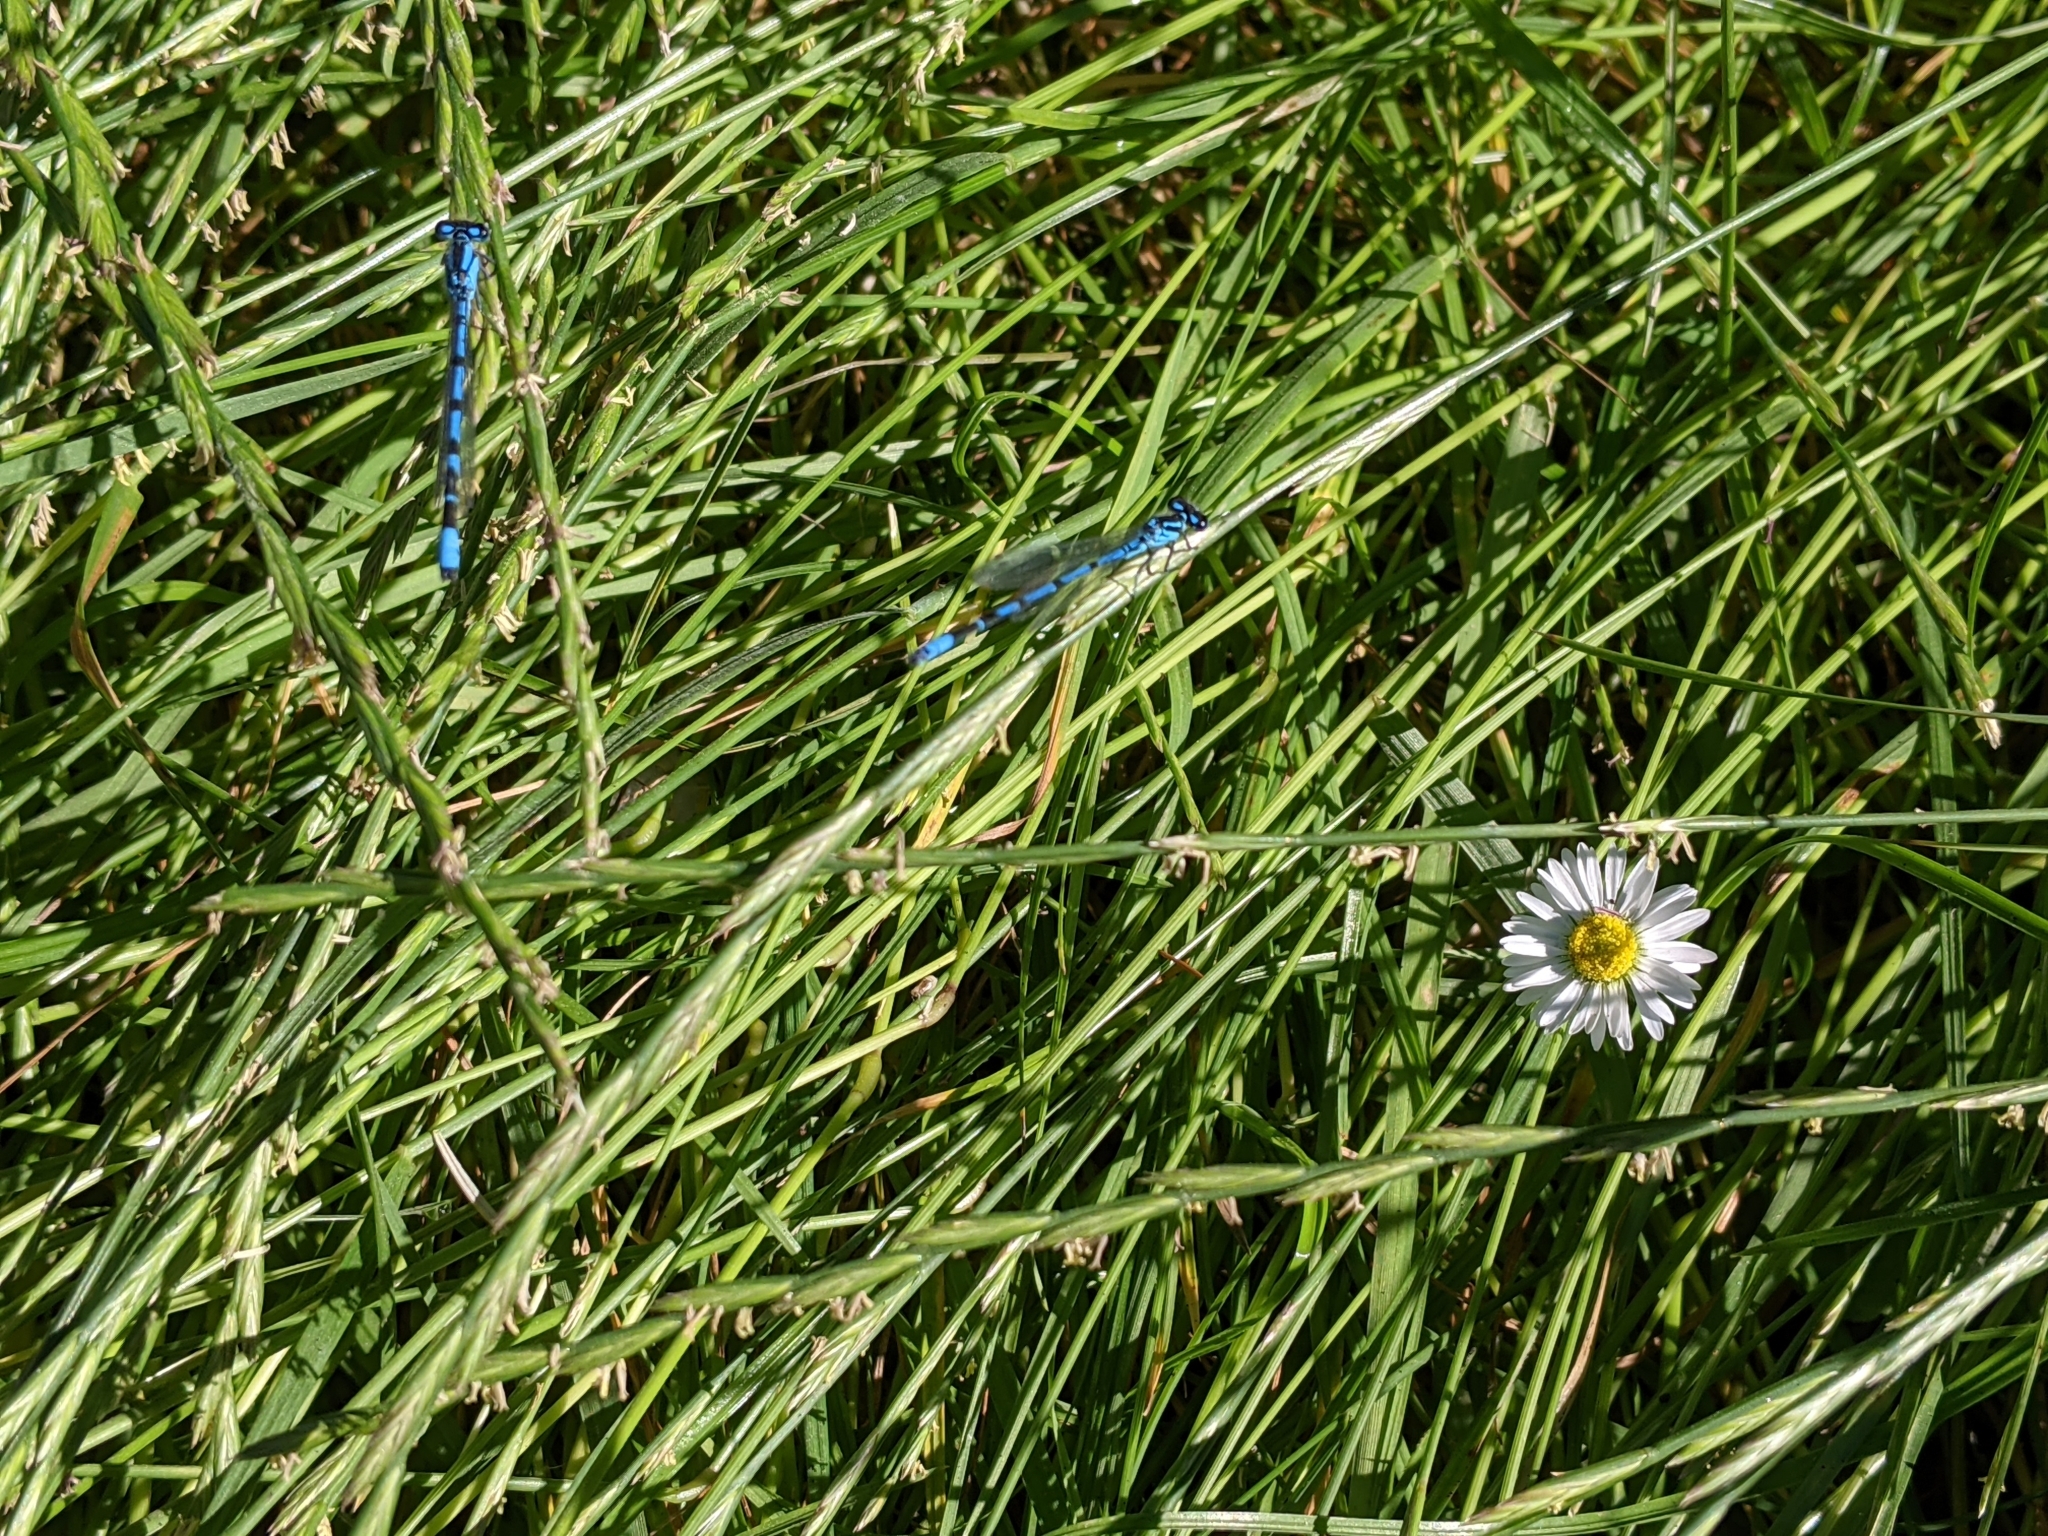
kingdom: Animalia
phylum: Arthropoda
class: Insecta
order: Odonata
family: Coenagrionidae
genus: Enallagma
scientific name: Enallagma cyathigerum
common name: Common blue damselfly
